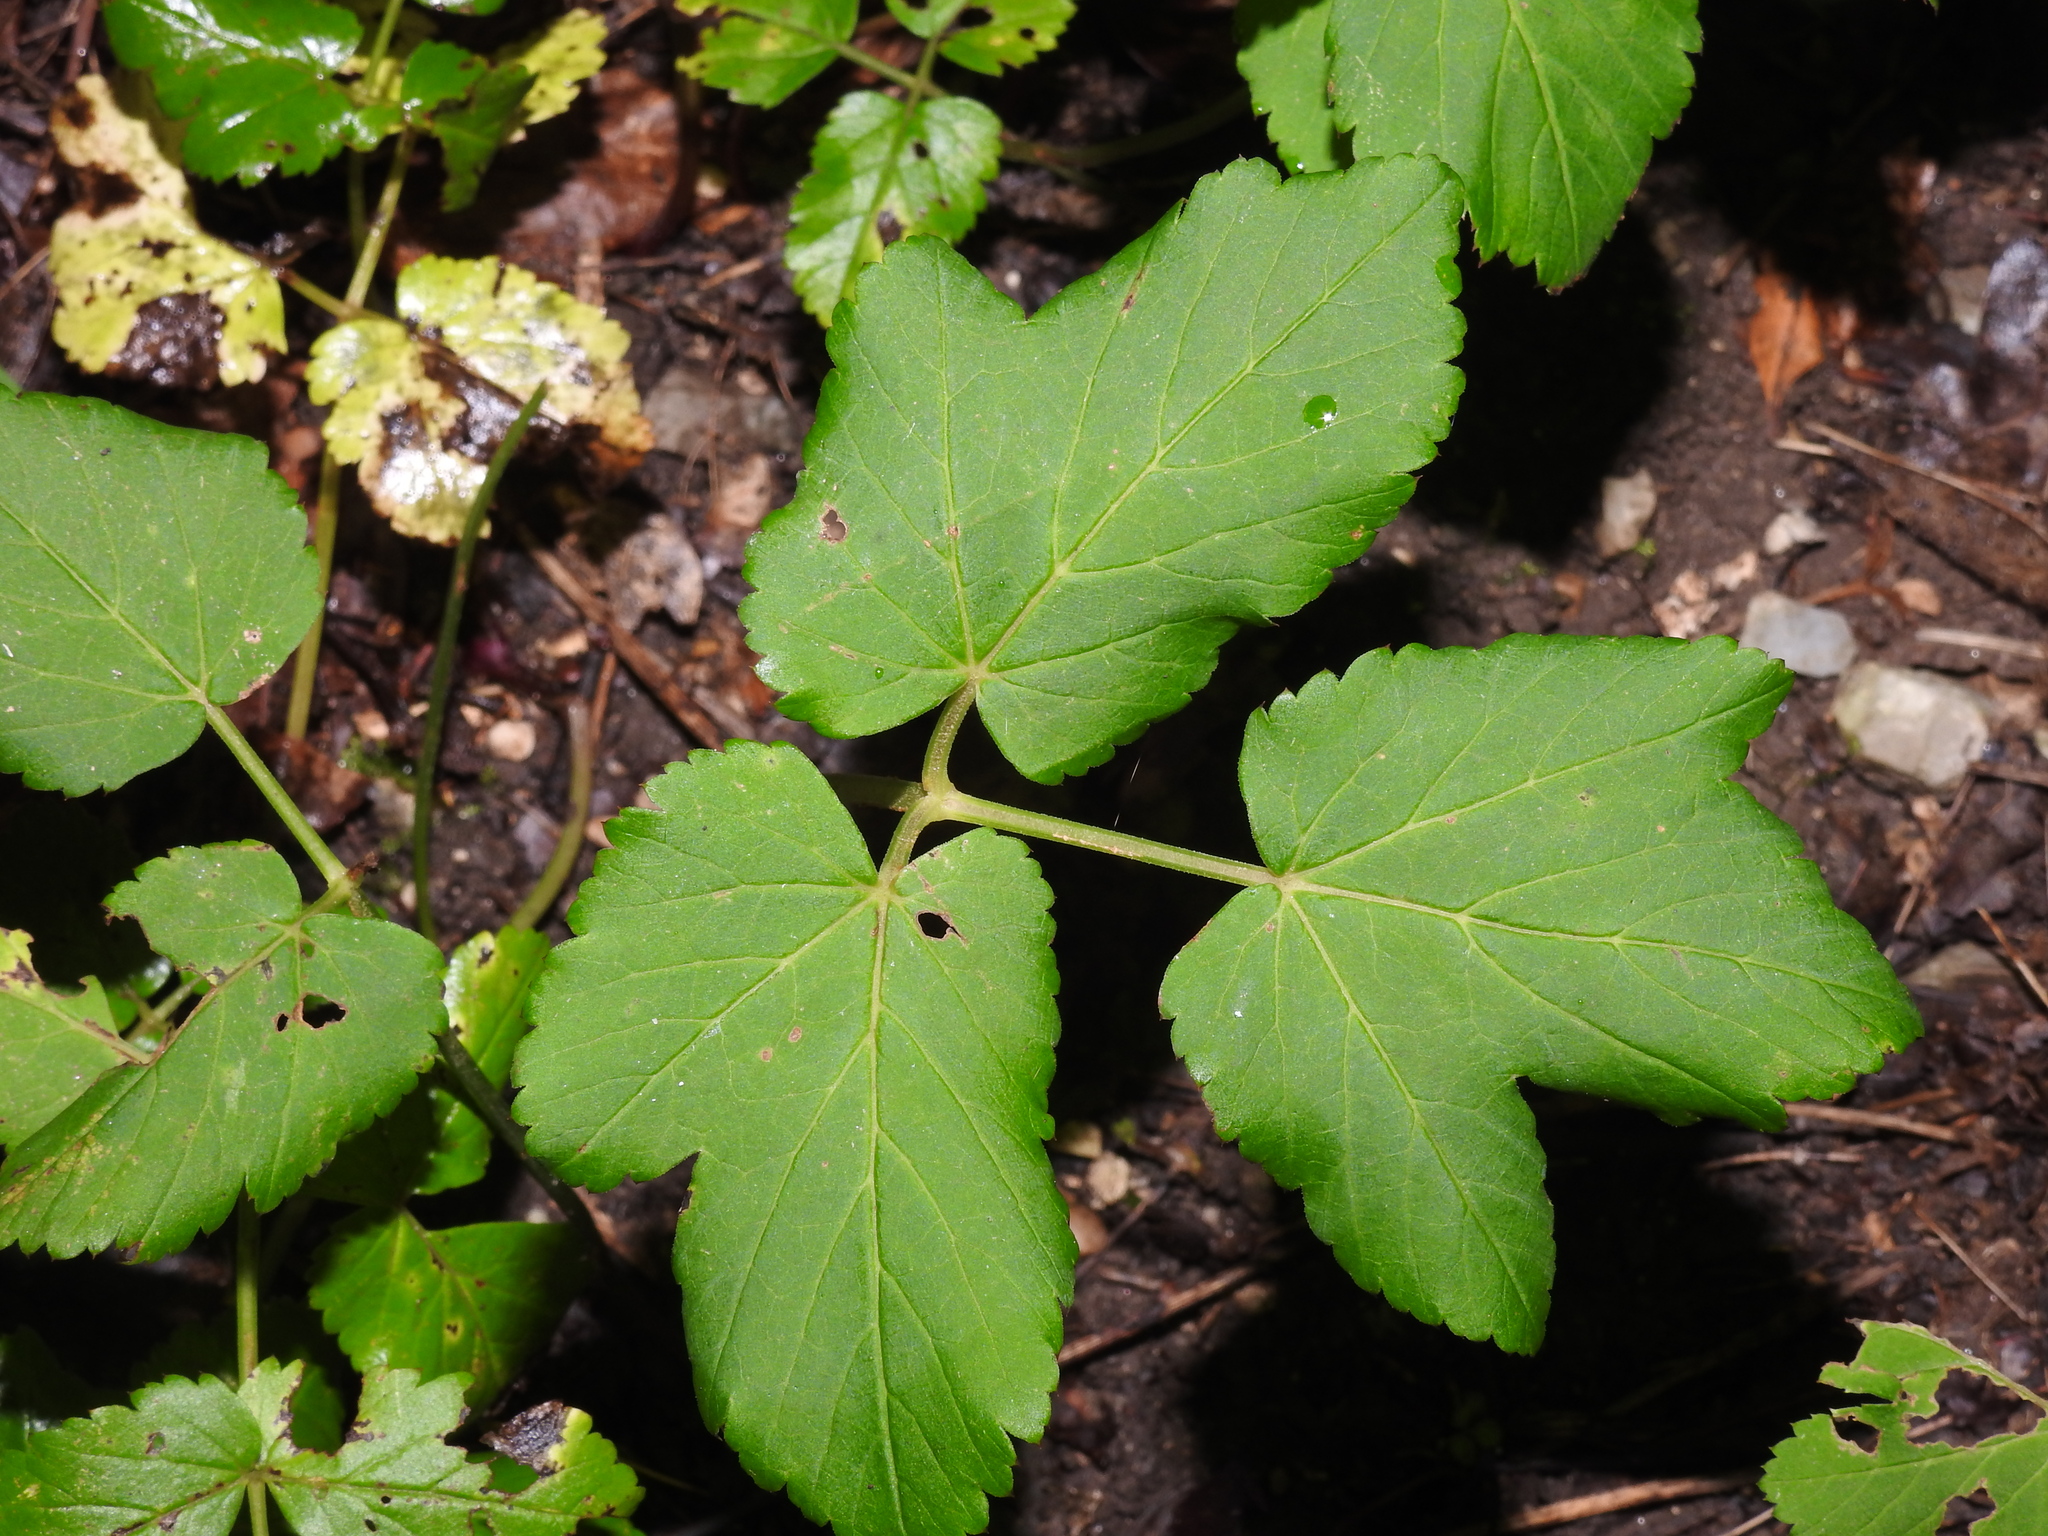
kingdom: Plantae
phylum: Tracheophyta
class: Magnoliopsida
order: Apiales
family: Apiaceae
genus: Aegopodium
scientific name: Aegopodium podagraria
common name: Ground-elder
